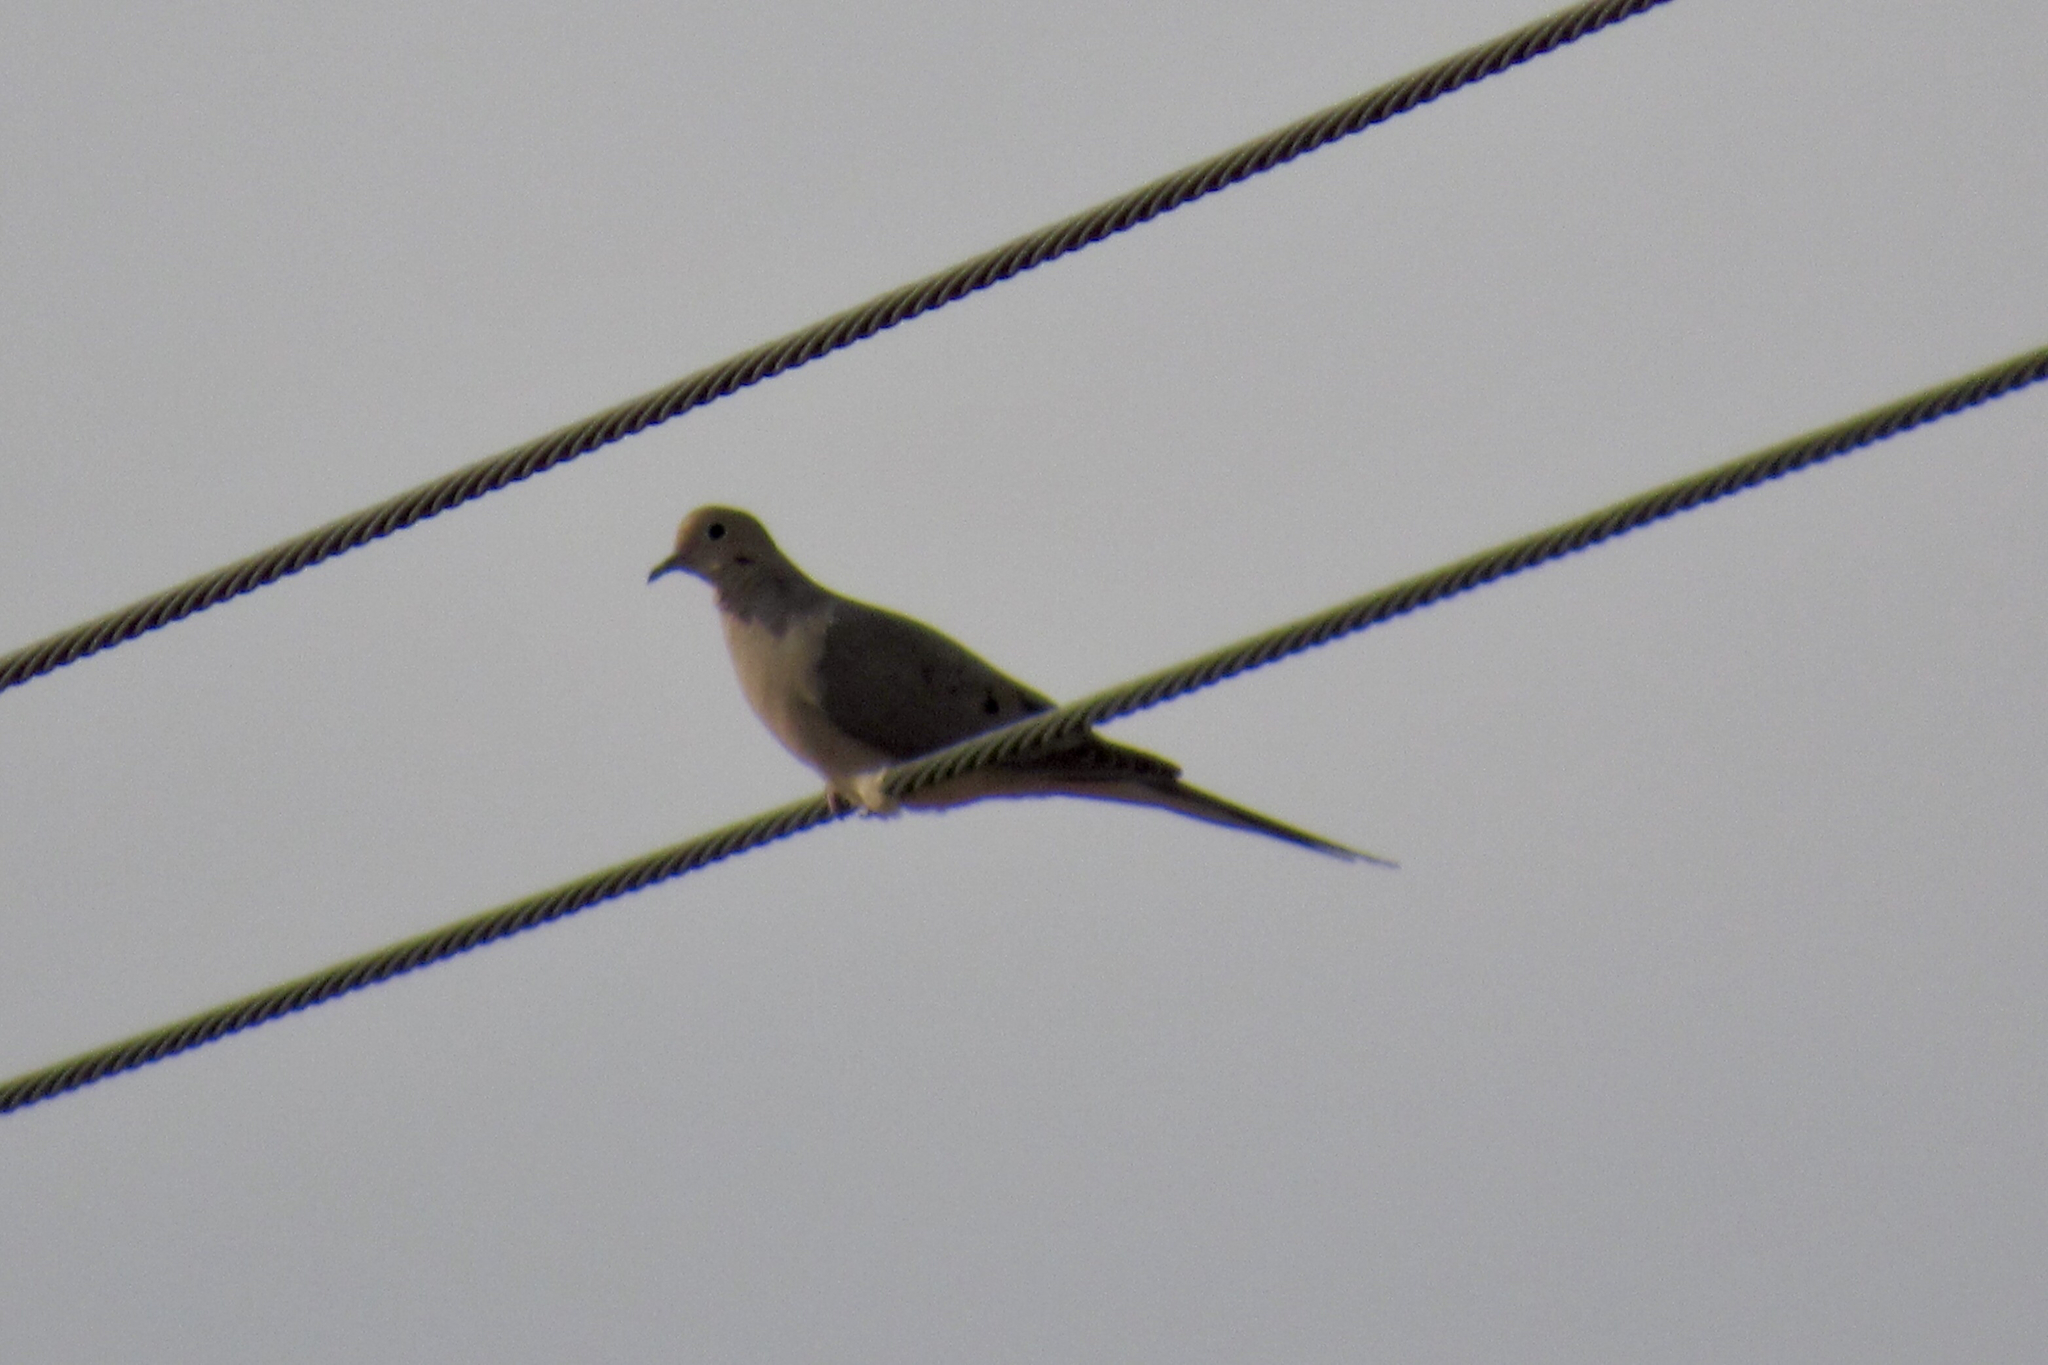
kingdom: Animalia
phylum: Chordata
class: Aves
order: Columbiformes
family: Columbidae
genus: Zenaida
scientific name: Zenaida macroura
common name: Mourning dove
